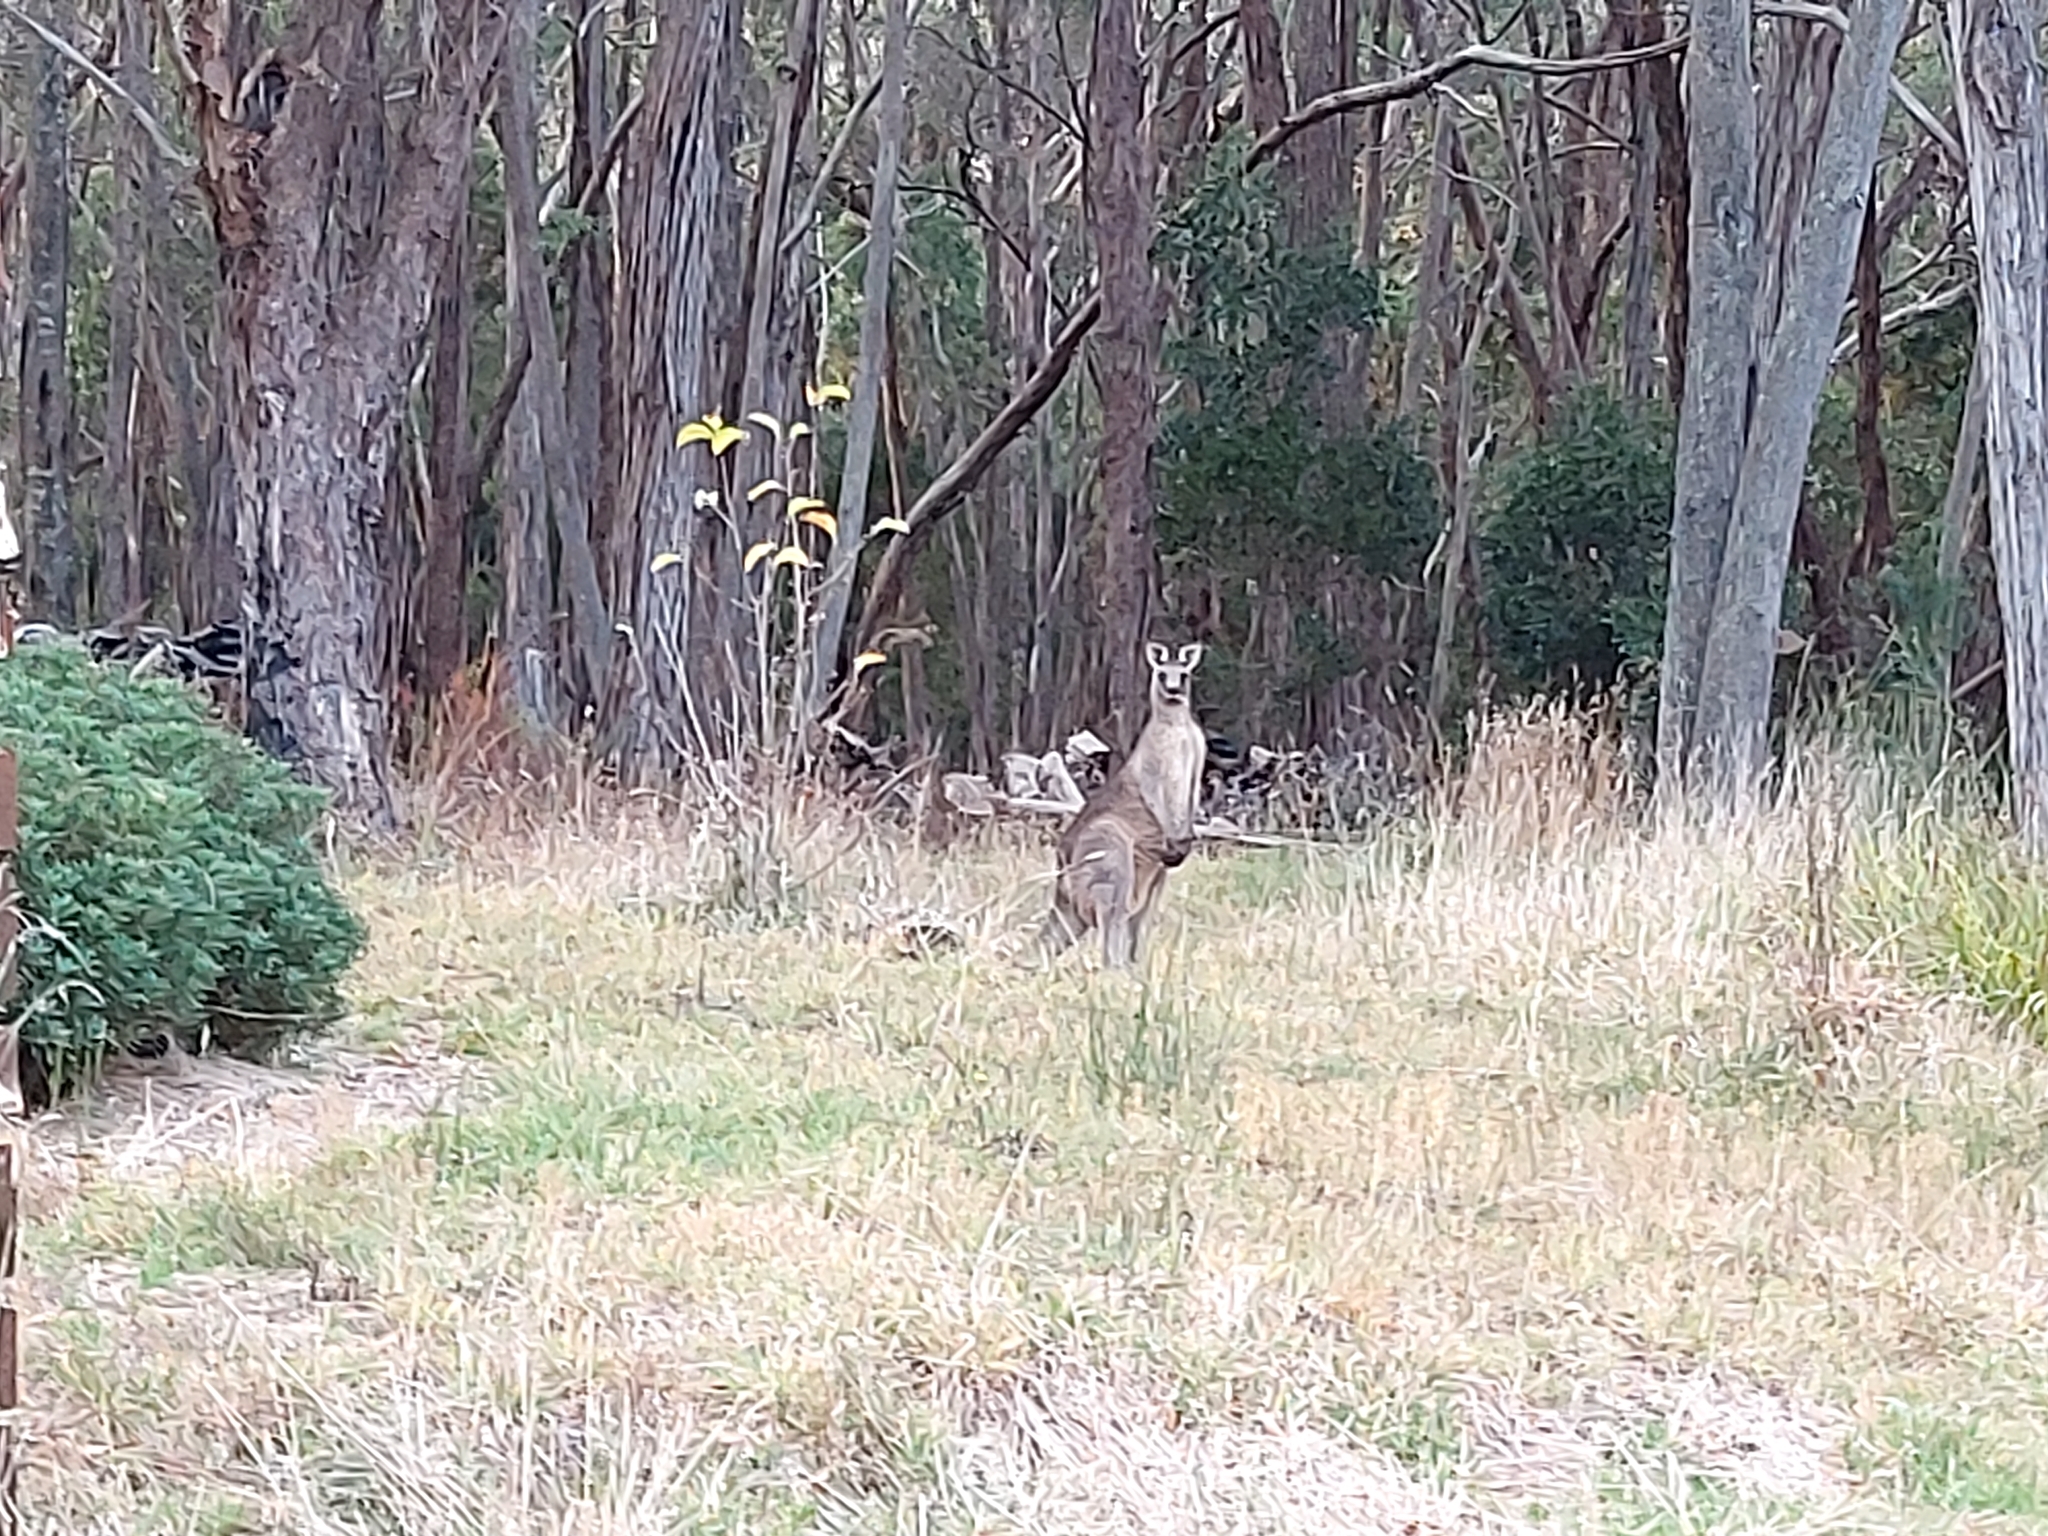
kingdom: Animalia
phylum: Chordata
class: Mammalia
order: Diprotodontia
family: Macropodidae
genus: Macropus
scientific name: Macropus giganteus
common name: Eastern grey kangaroo
